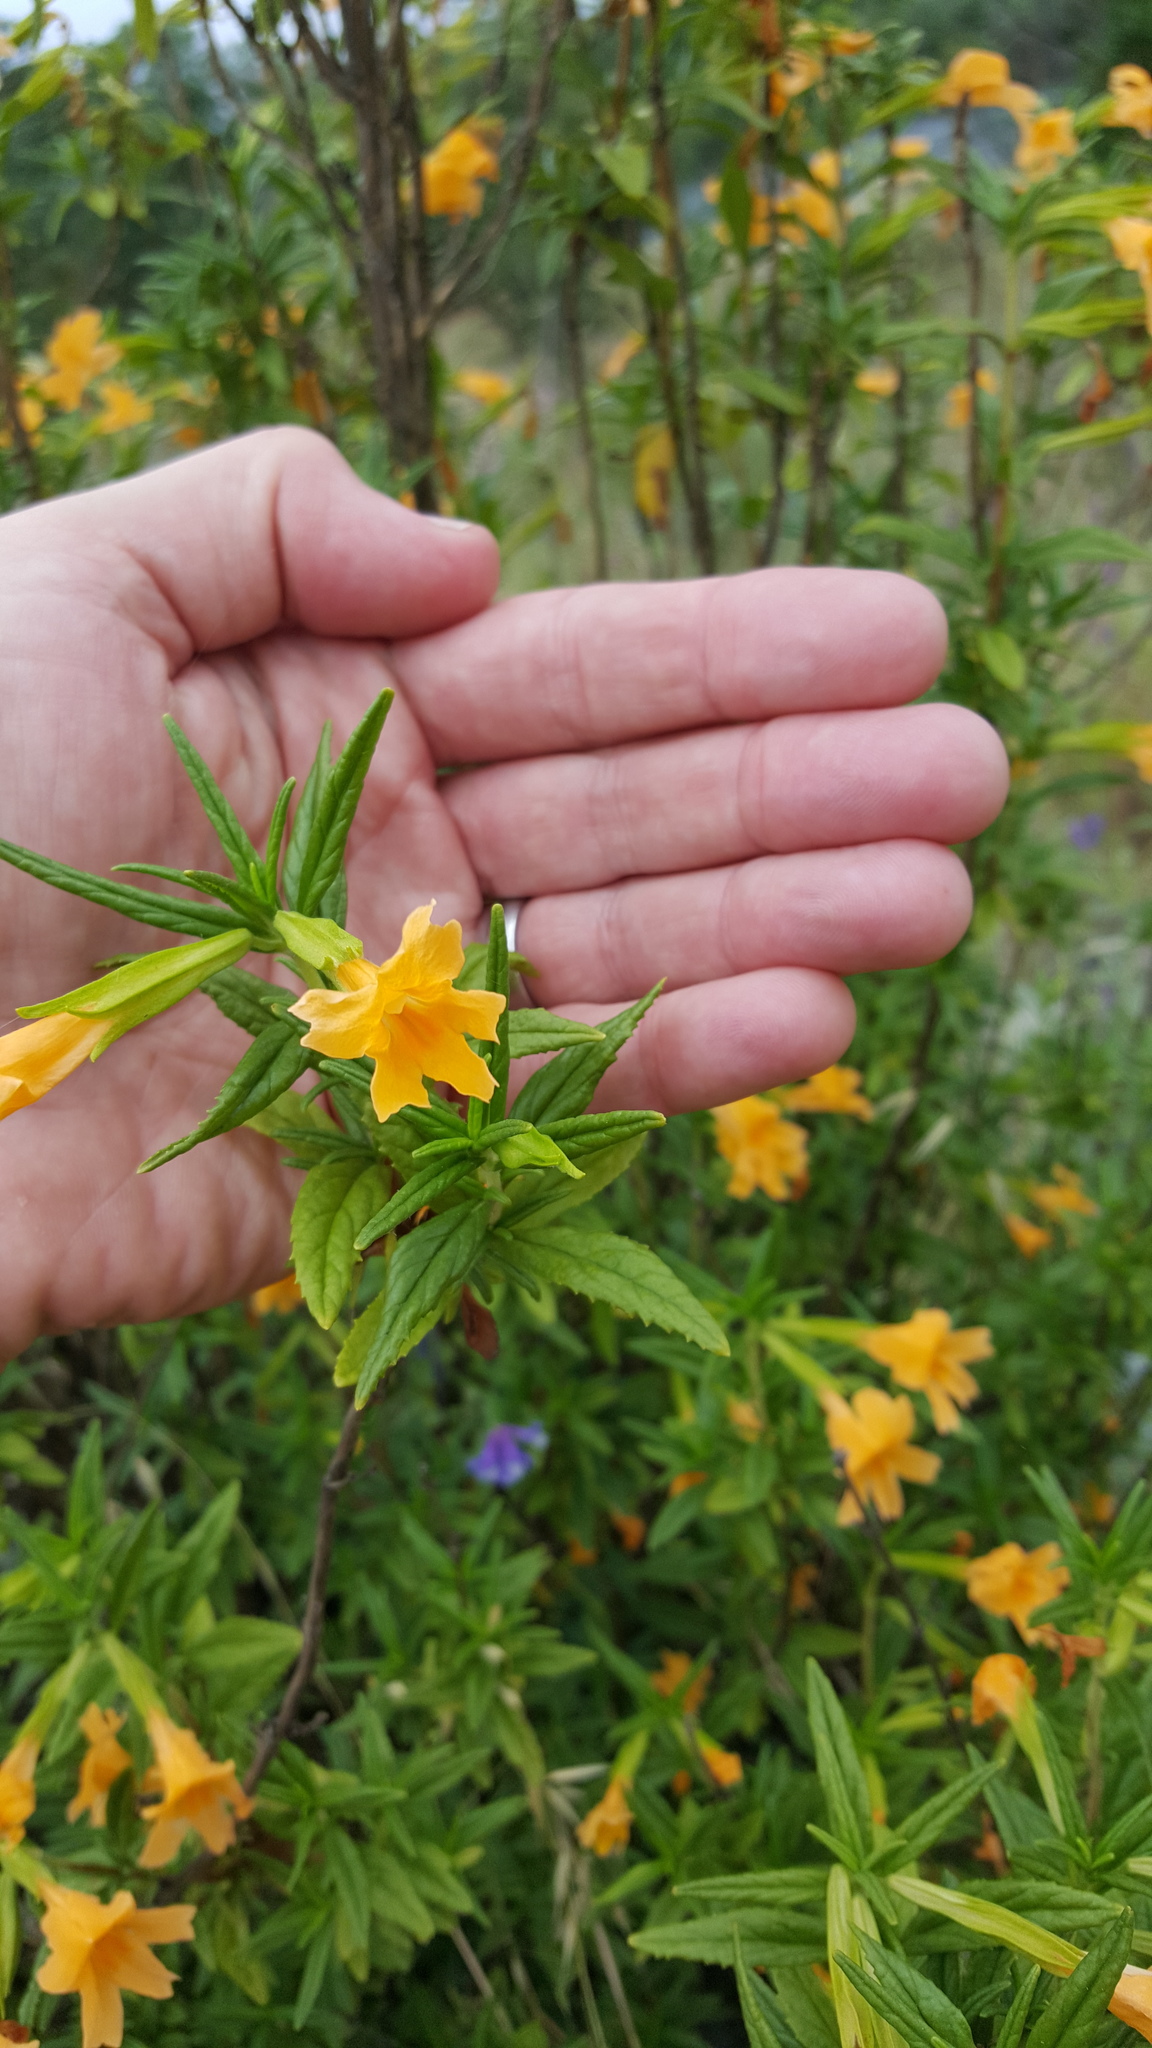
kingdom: Plantae
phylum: Tracheophyta
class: Magnoliopsida
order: Lamiales
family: Phrymaceae
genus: Diplacus
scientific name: Diplacus aurantiacus
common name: Bush monkey-flower
